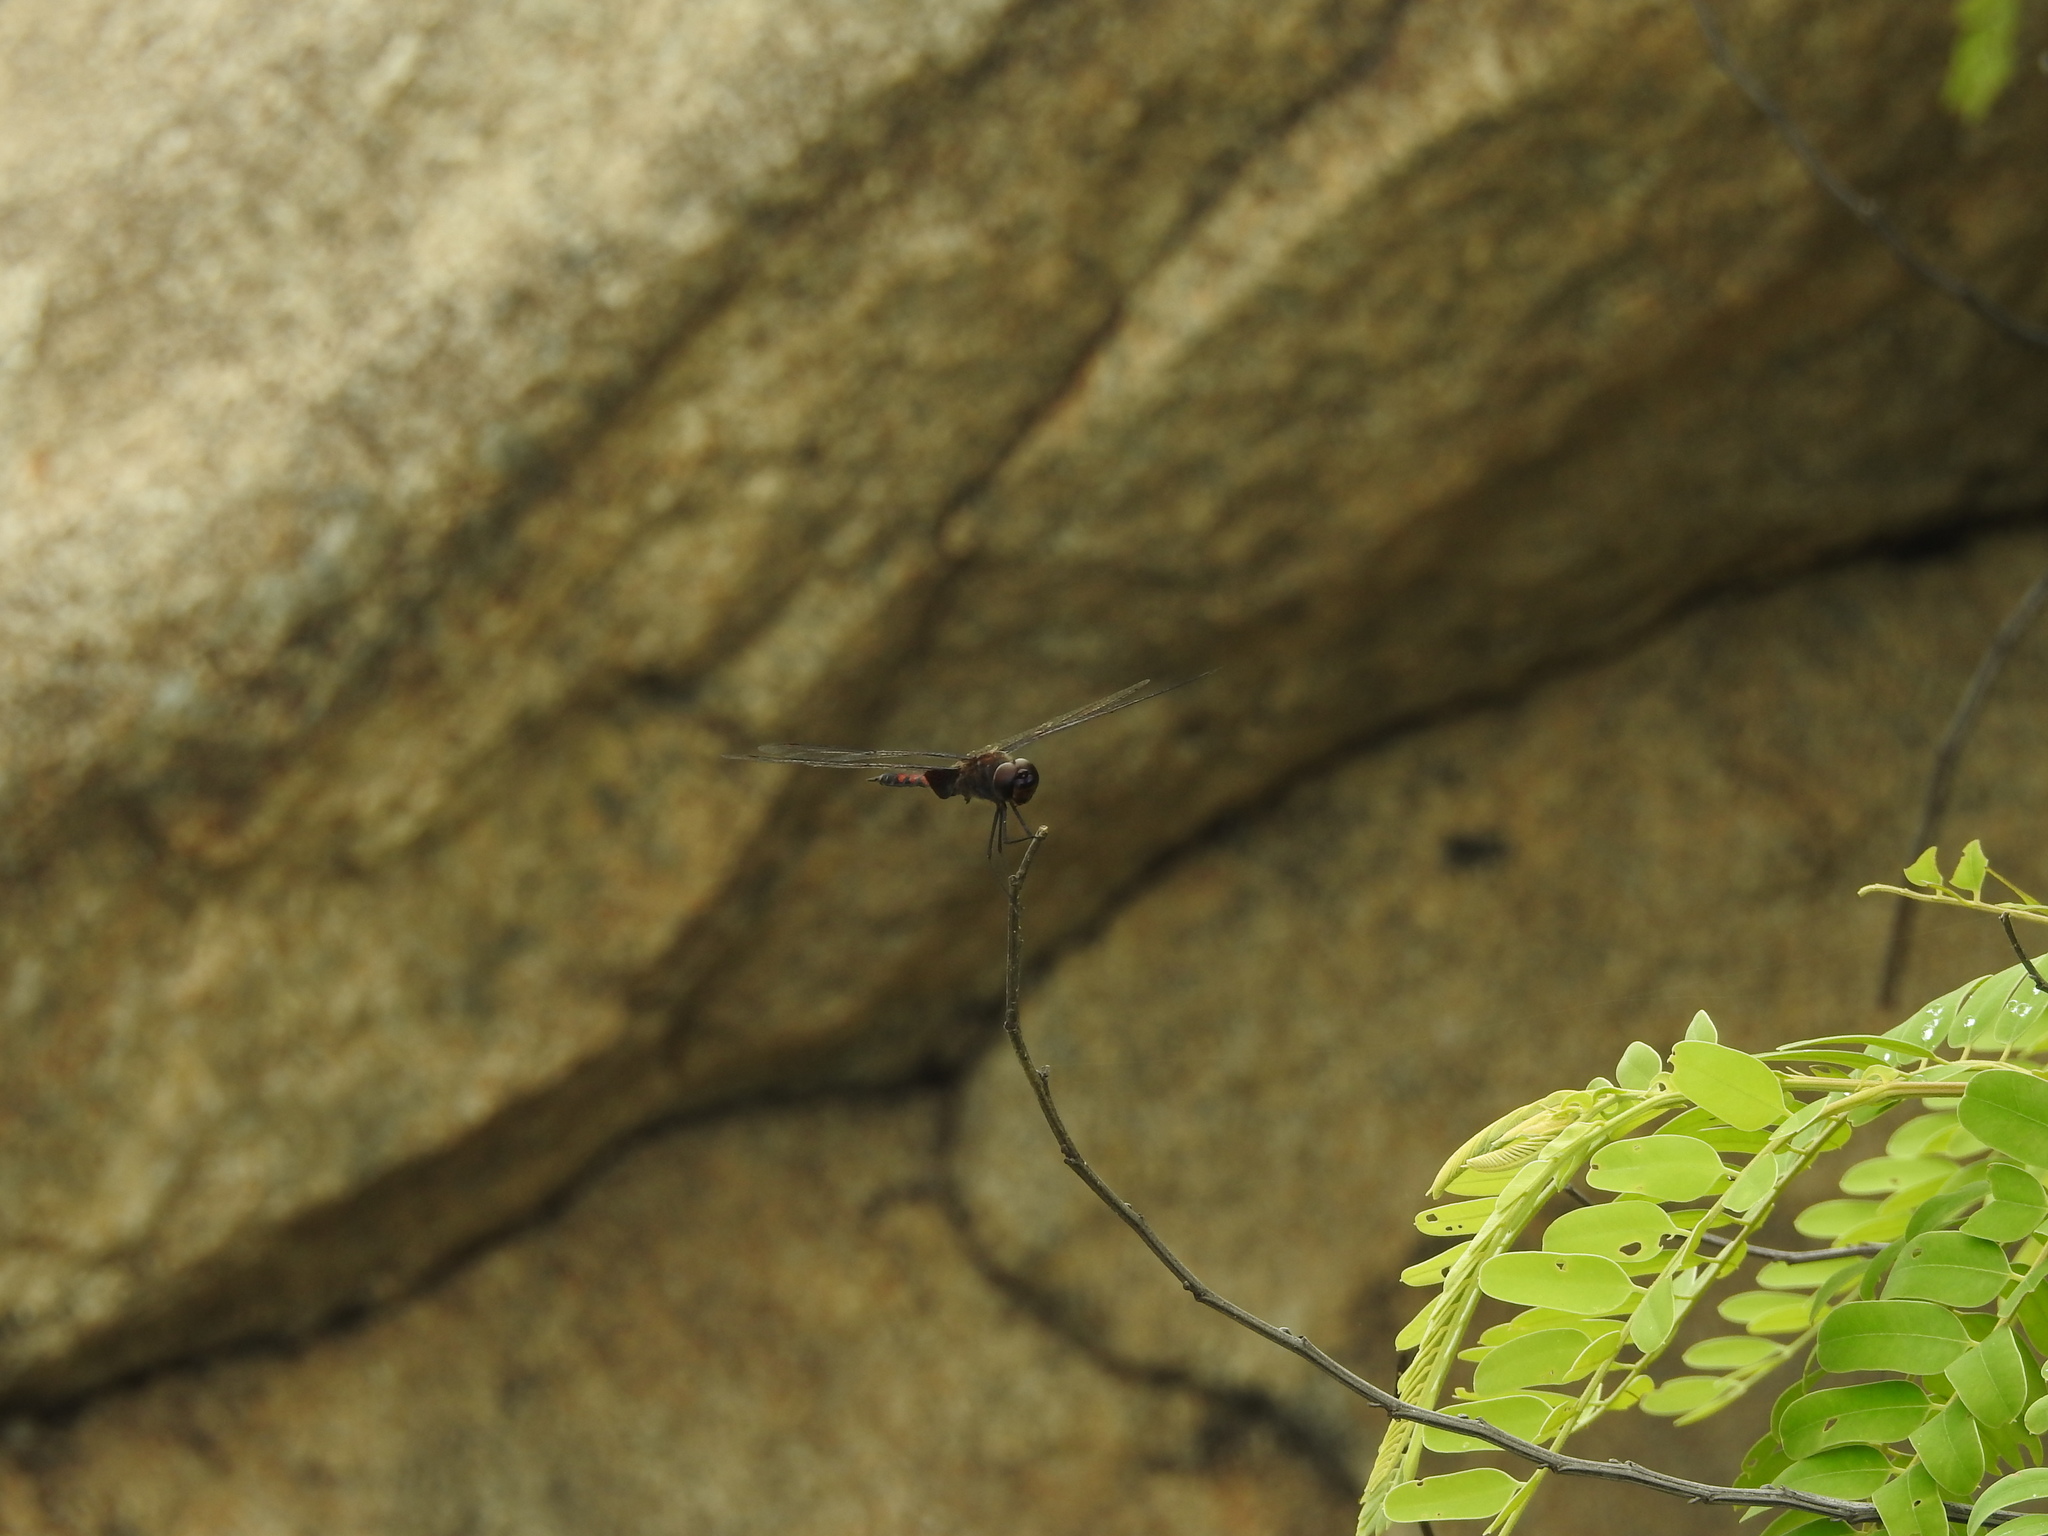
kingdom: Animalia
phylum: Arthropoda
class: Insecta
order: Odonata
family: Libellulidae
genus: Tramea
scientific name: Tramea limbata
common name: Ferruginous glider
